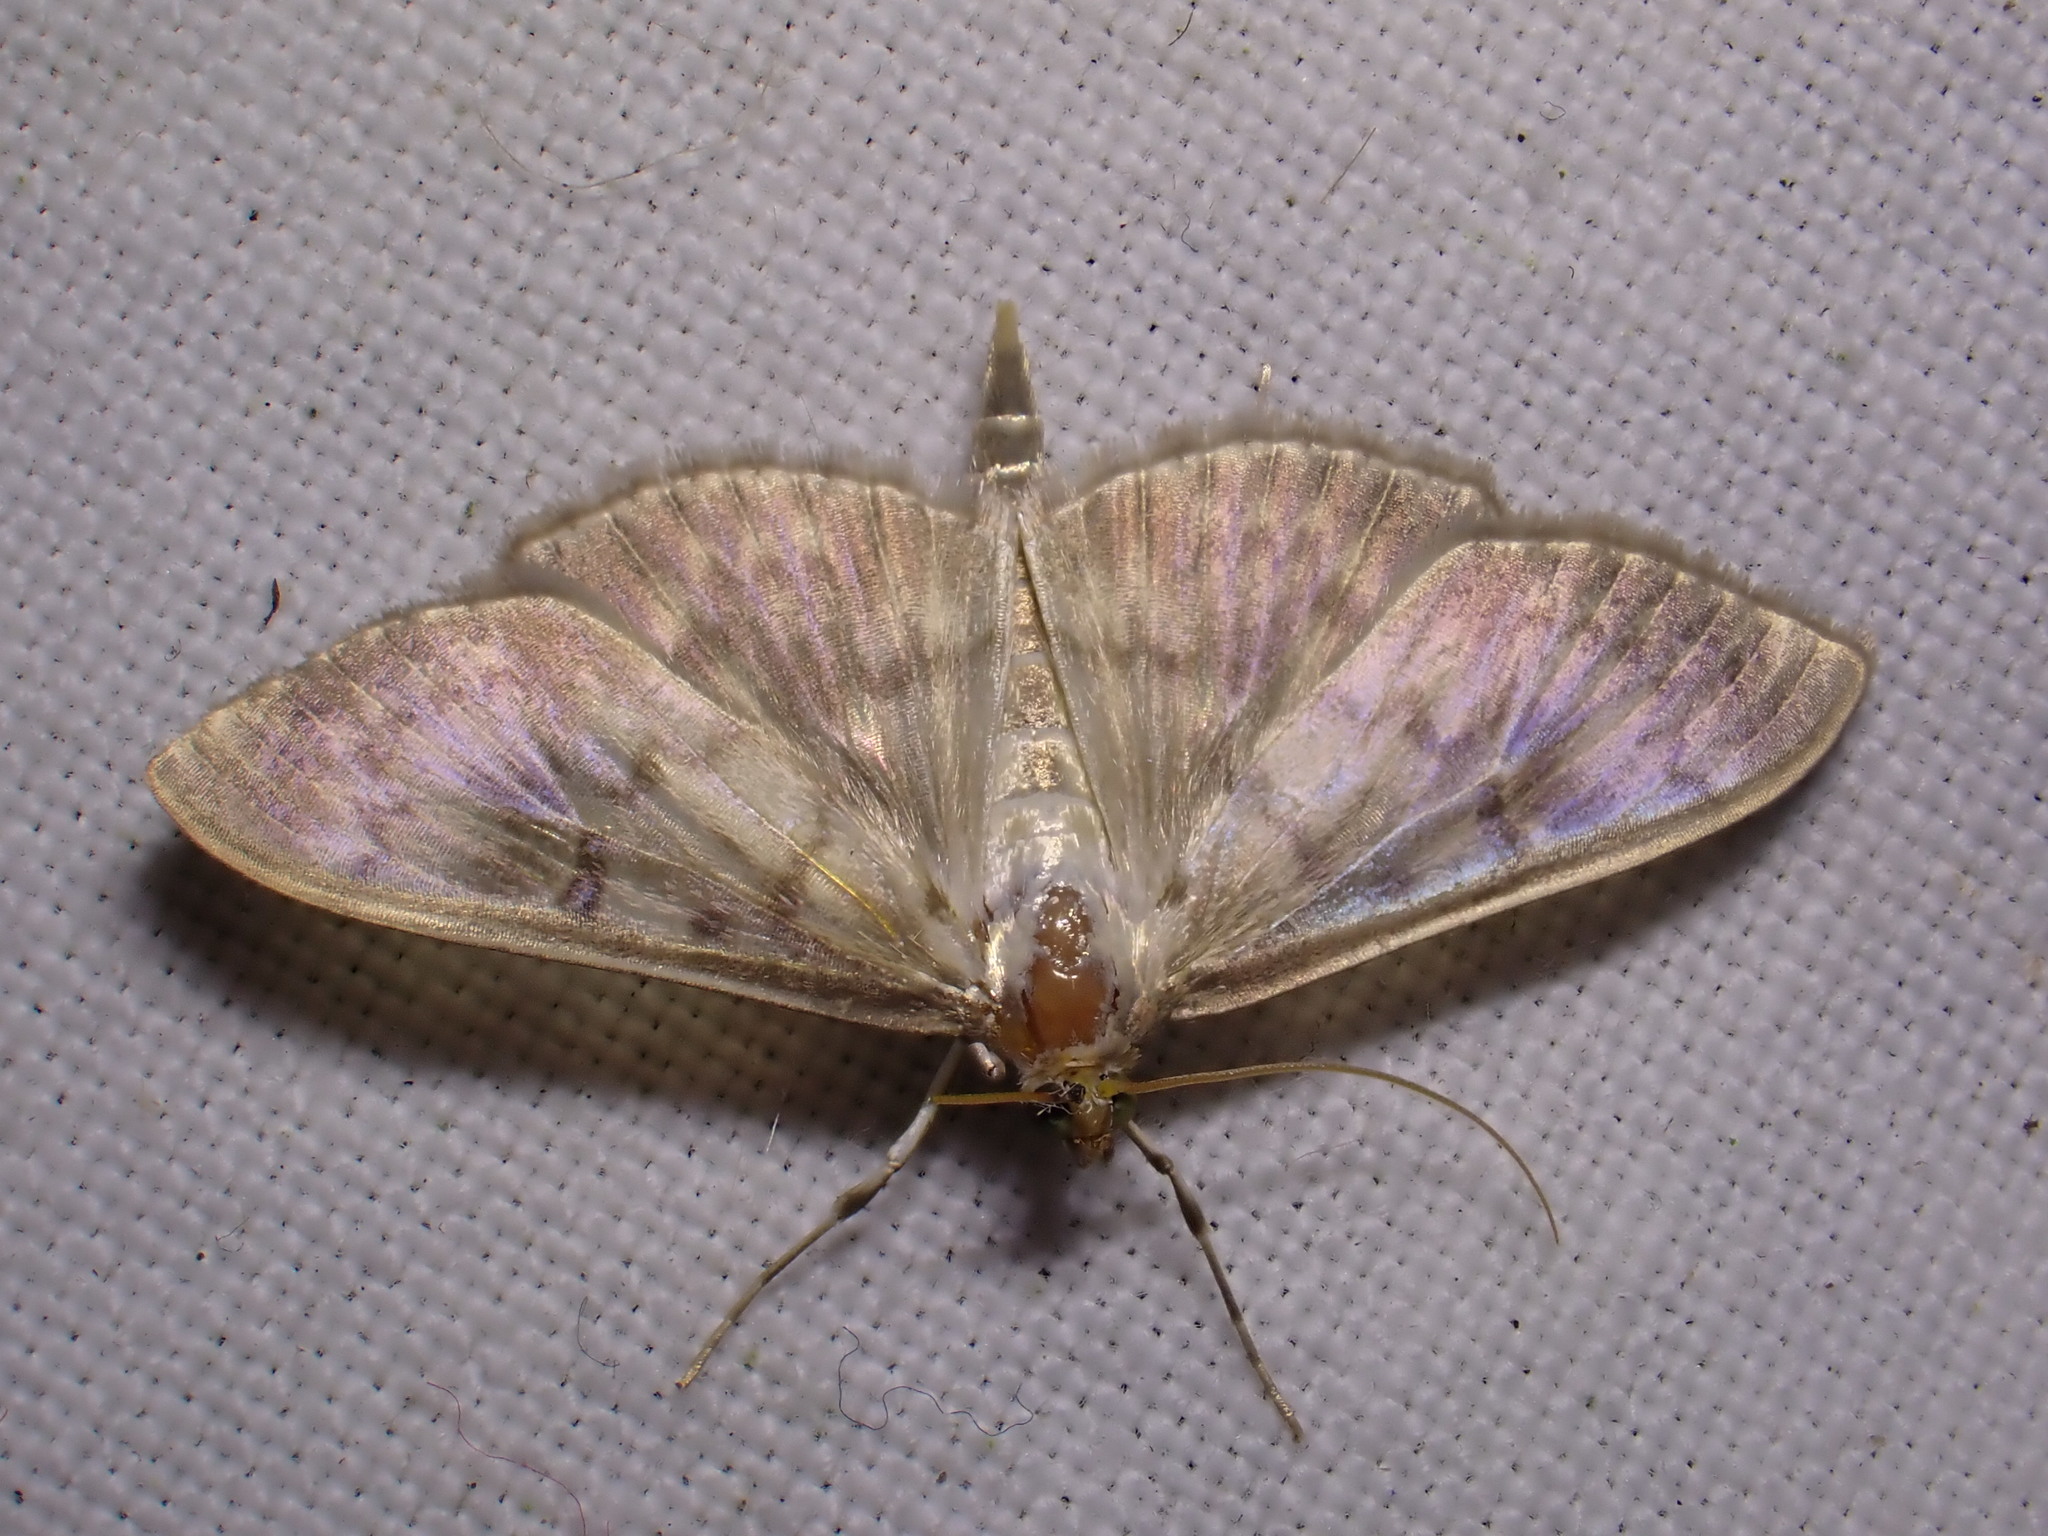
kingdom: Animalia
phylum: Arthropoda
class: Insecta
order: Lepidoptera
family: Crambidae
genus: Patania
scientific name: Patania ruralis
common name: Mother of pearl
